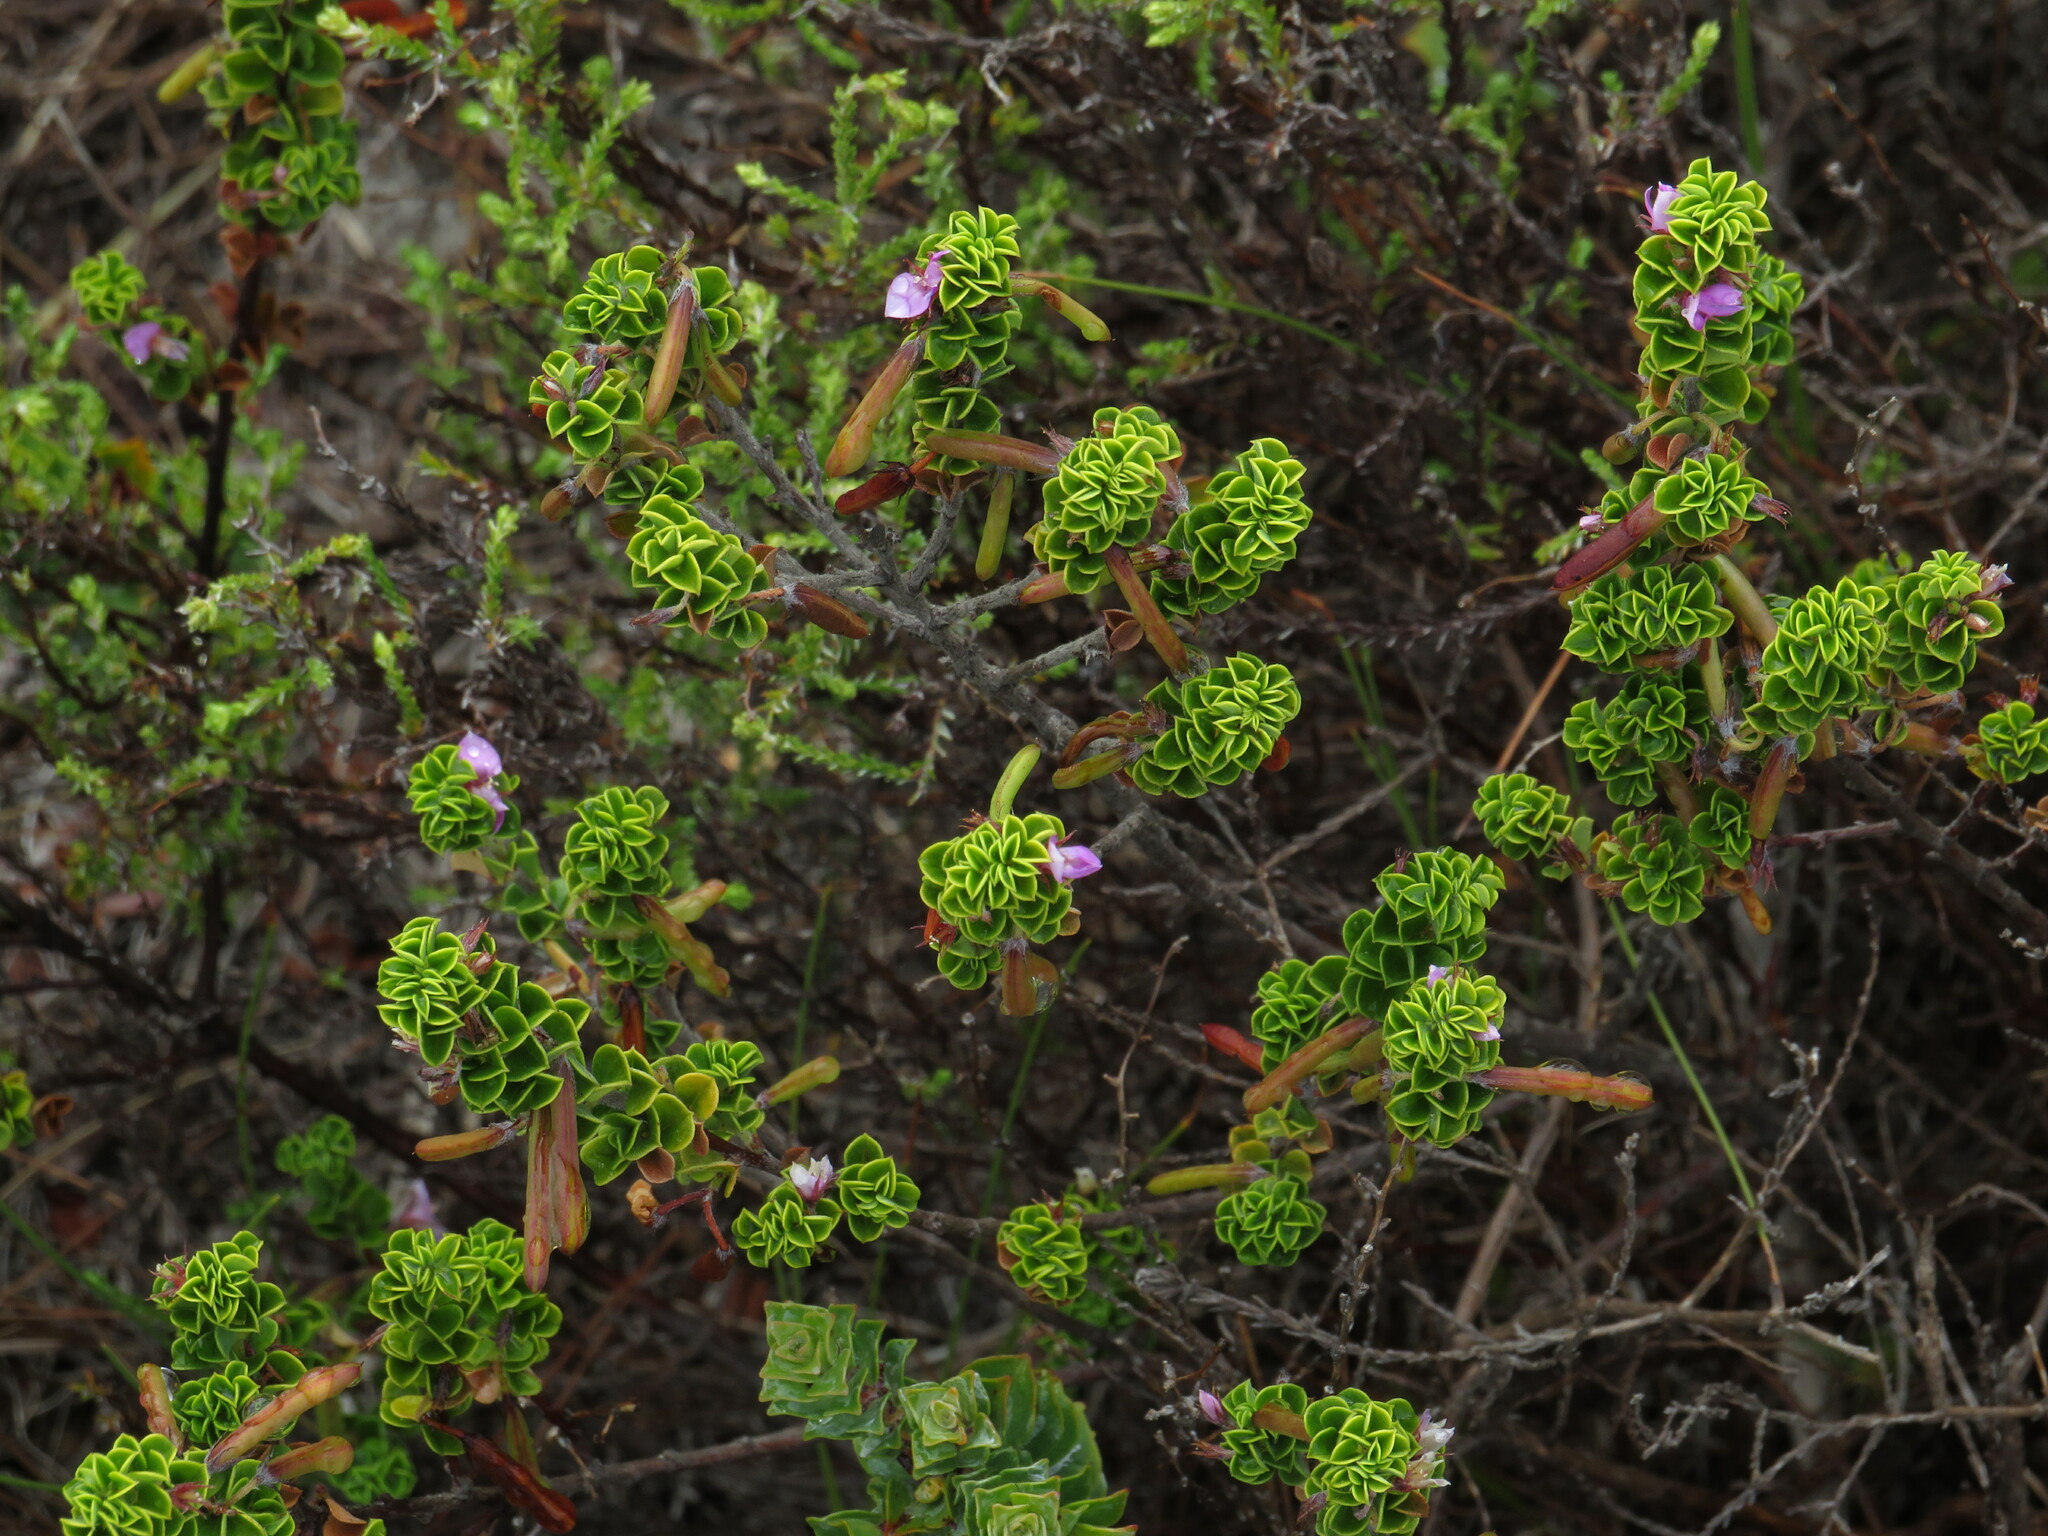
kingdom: Plantae
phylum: Tracheophyta
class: Magnoliopsida
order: Fabales
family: Fabaceae
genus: Indigofera
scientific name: Indigofera candolleana
